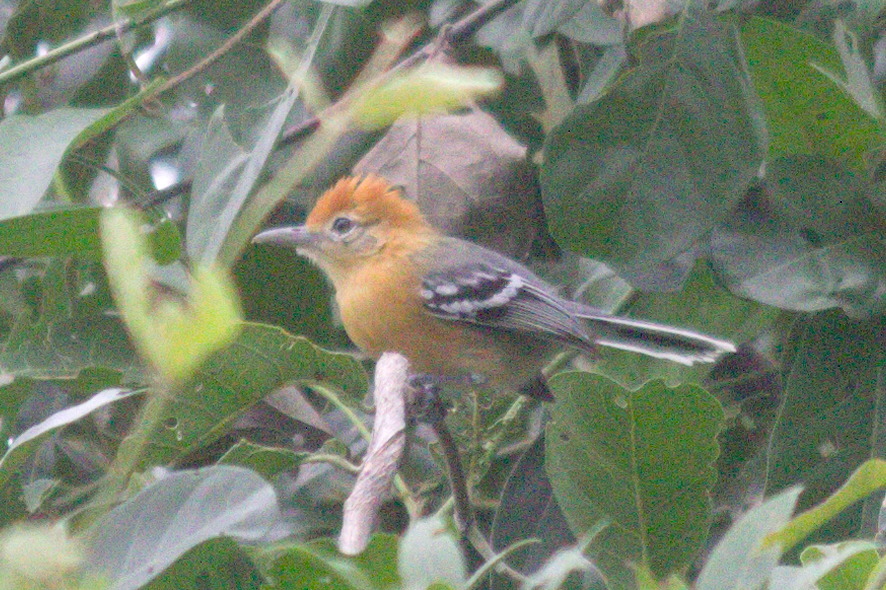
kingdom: Animalia
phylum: Chordata
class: Aves
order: Passeriformes
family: Thamnophilidae
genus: Herpsilochmus
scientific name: Herpsilochmus longirostris
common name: Large-billed antwren
